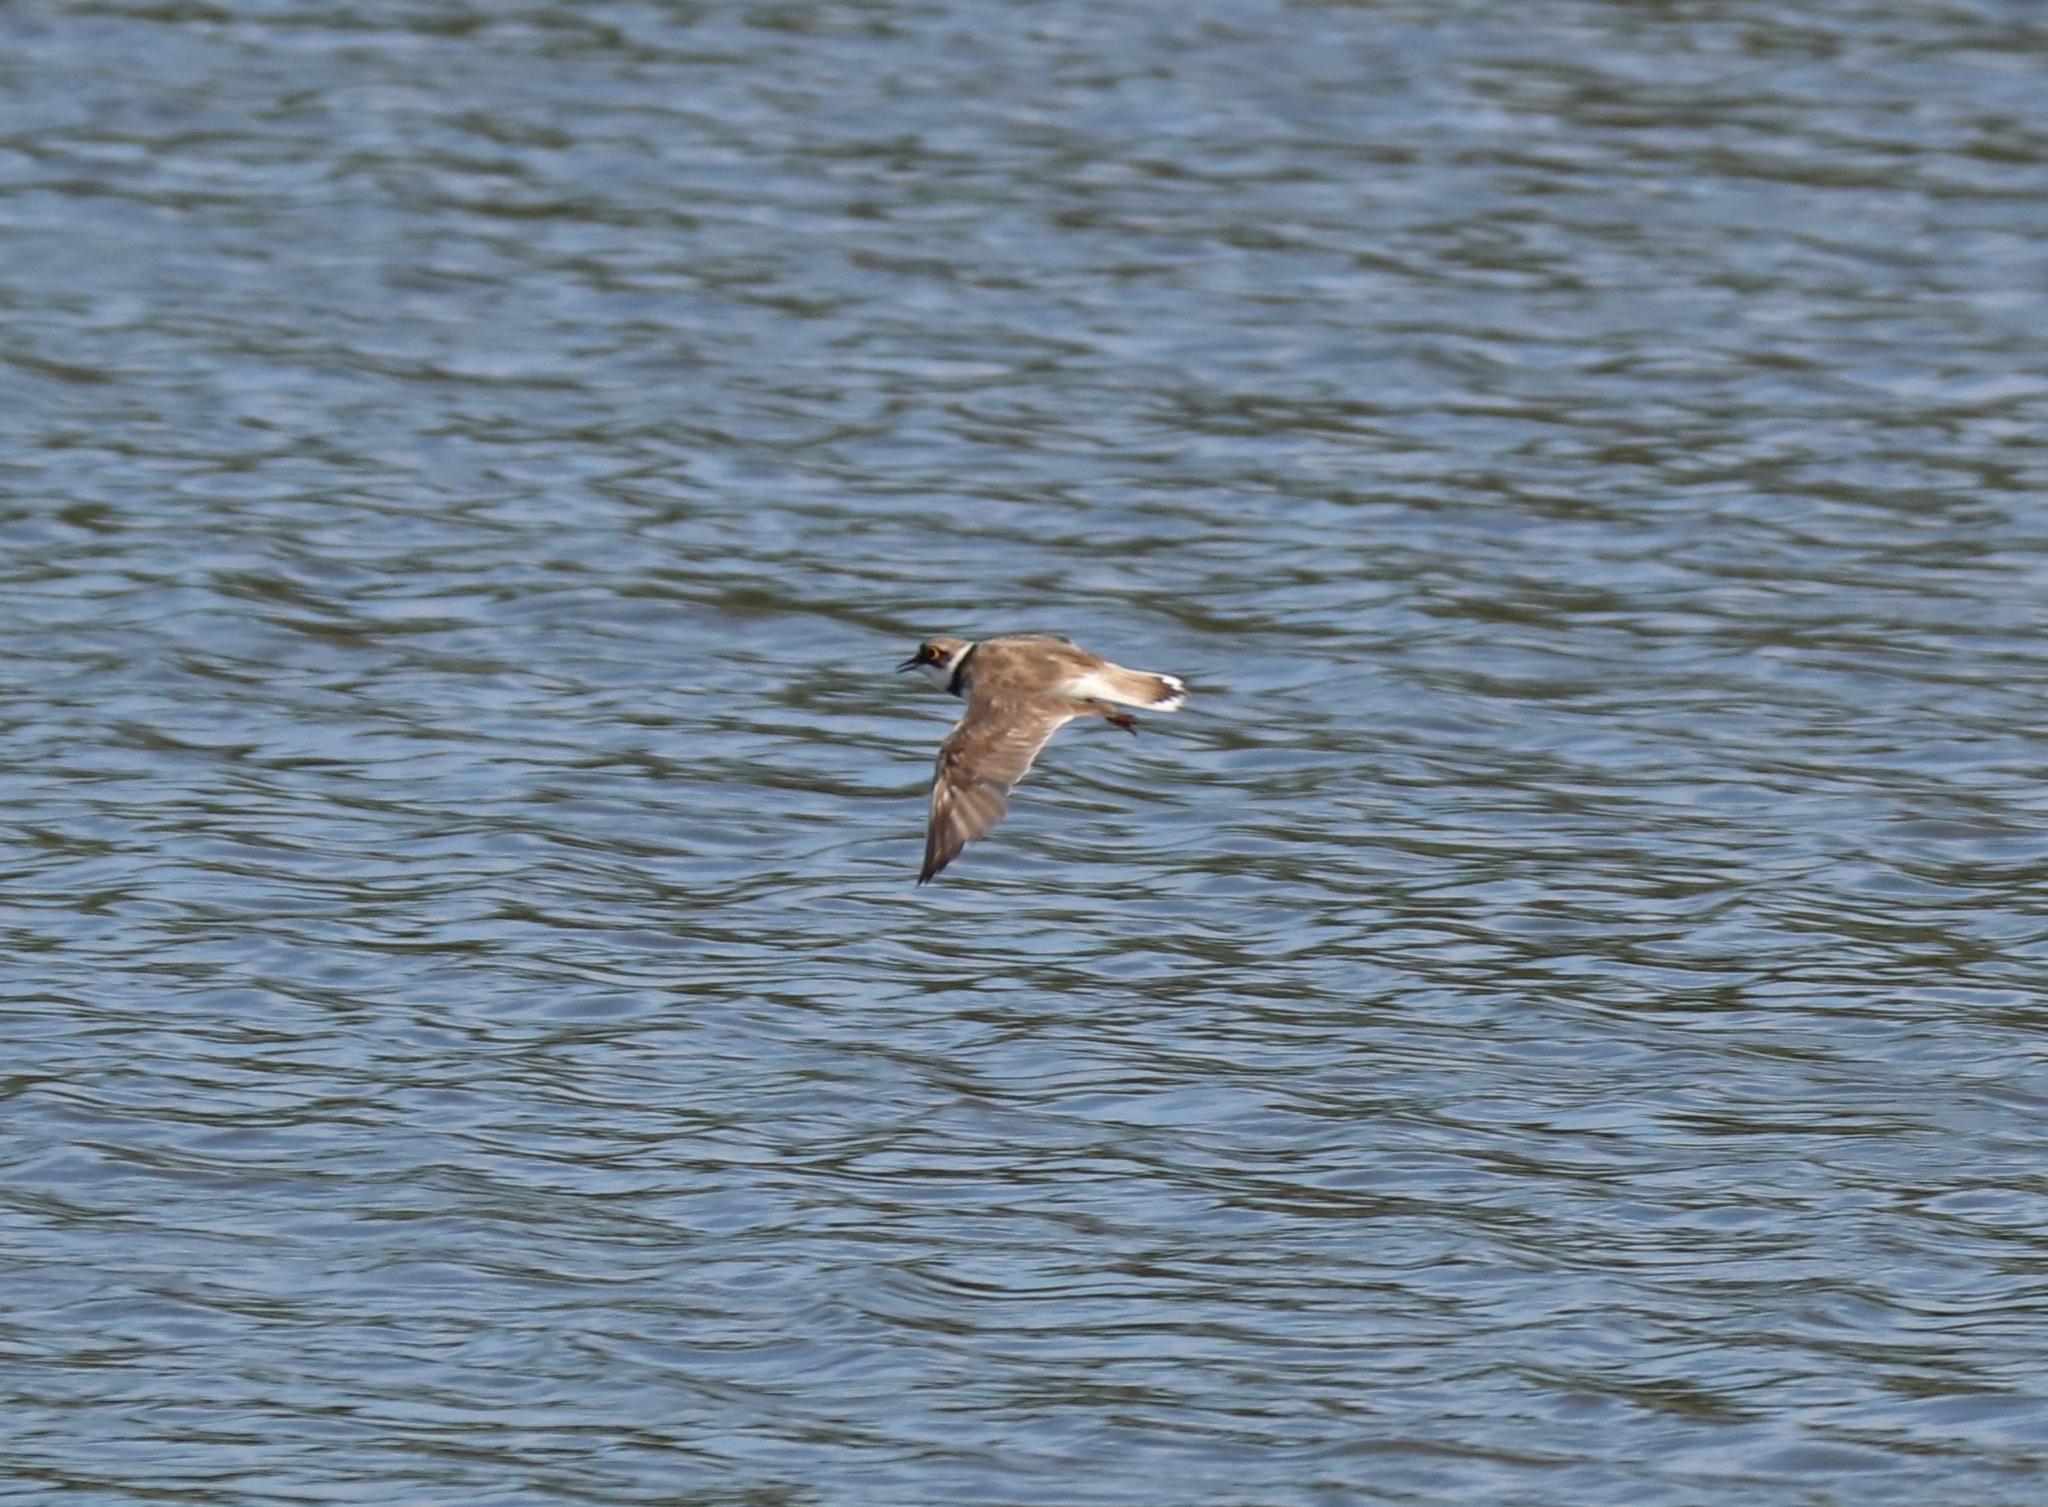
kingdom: Animalia
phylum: Chordata
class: Aves
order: Charadriiformes
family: Charadriidae
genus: Charadrius
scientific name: Charadrius dubius
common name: Little ringed plover
